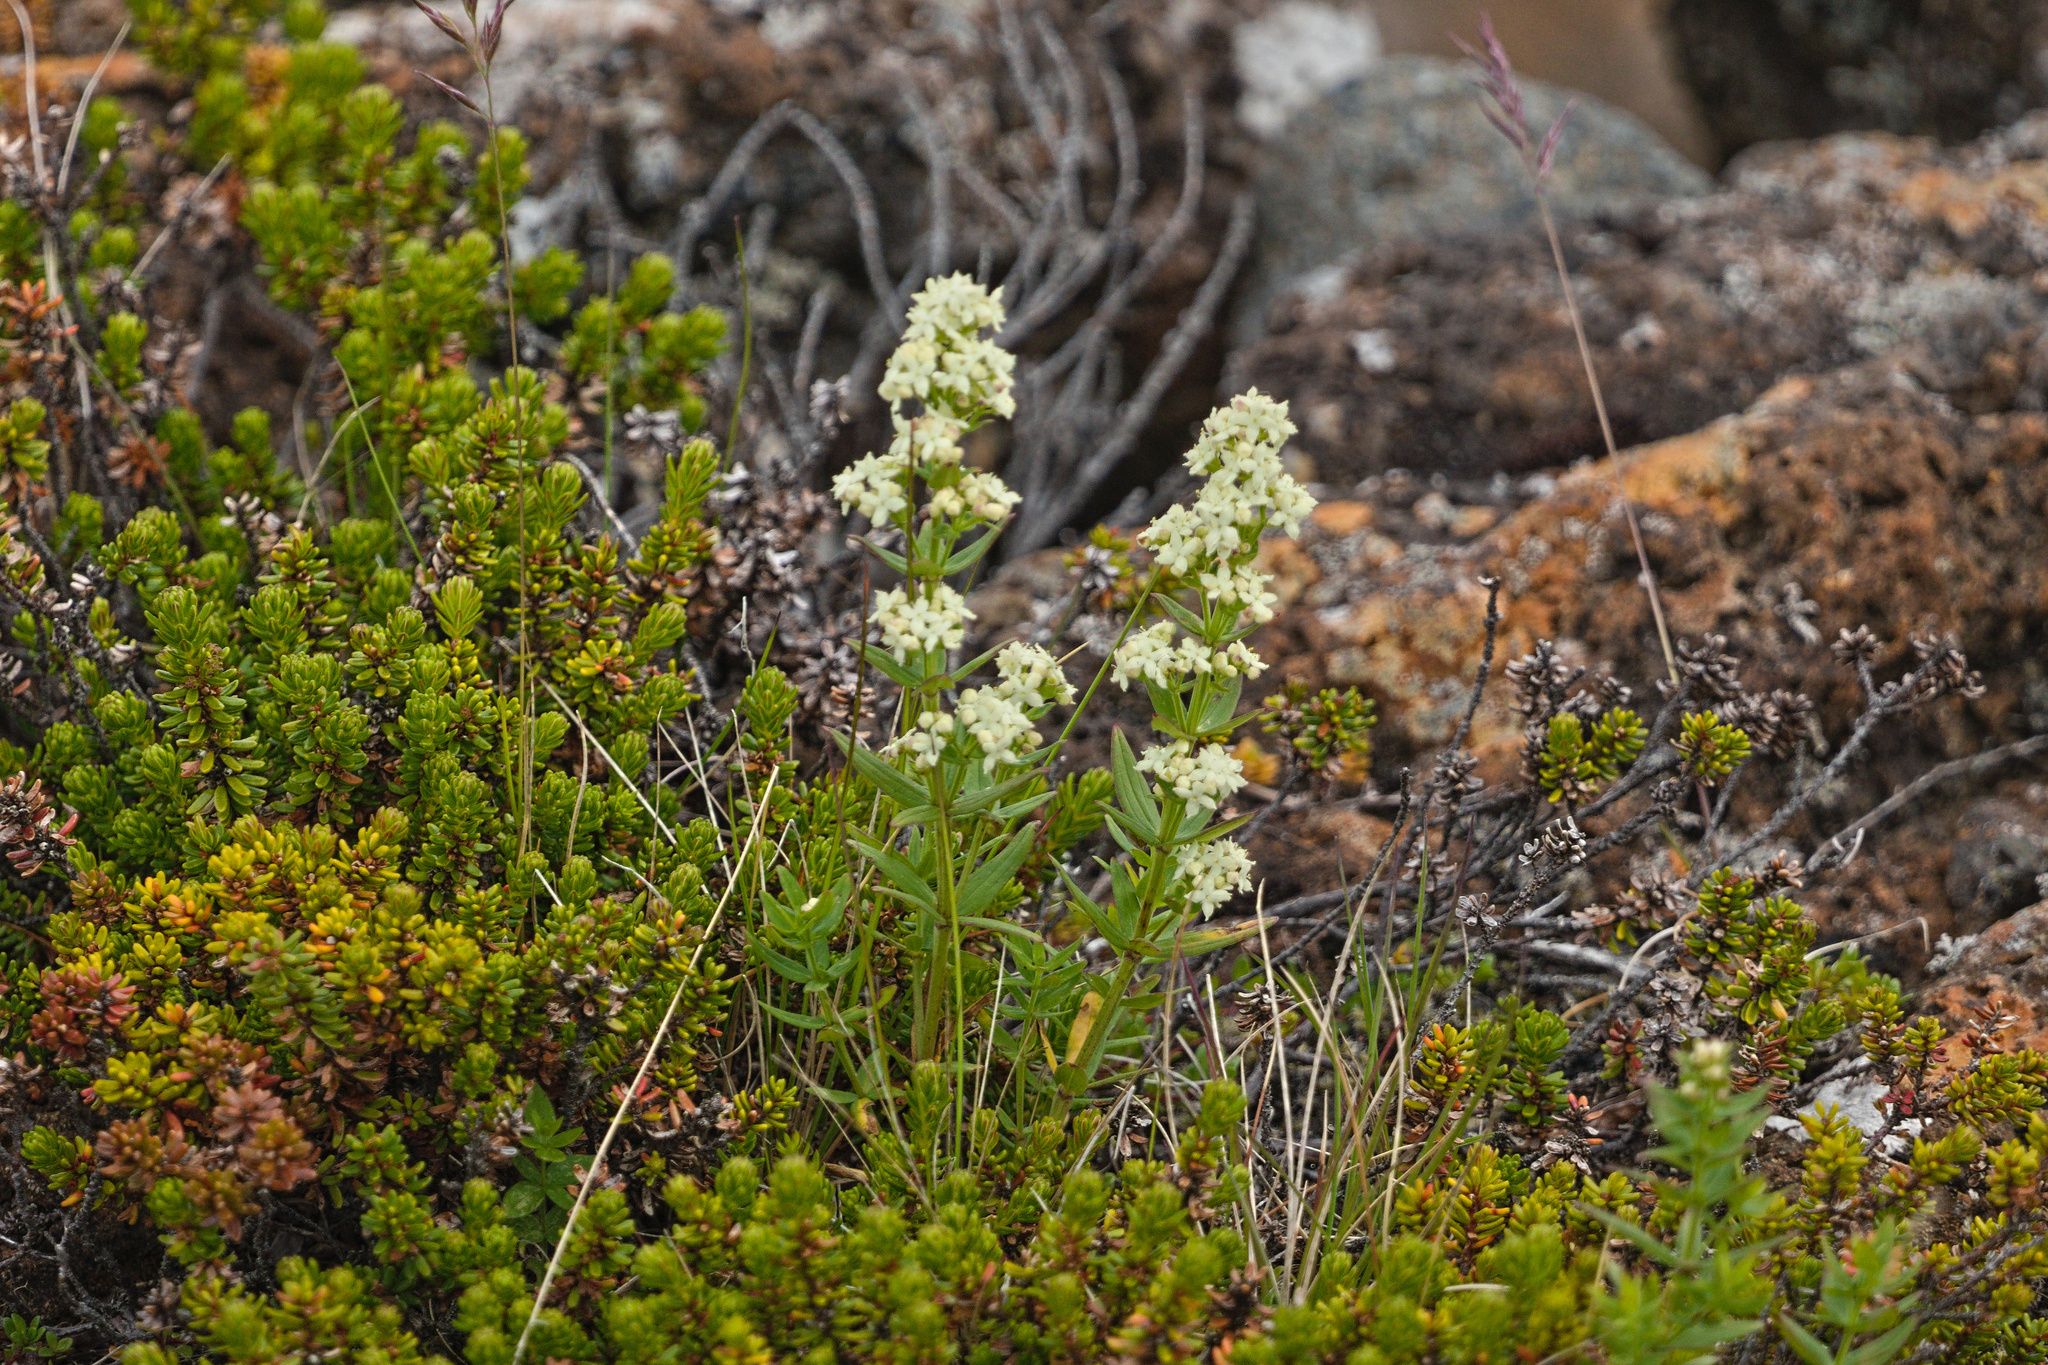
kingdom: Plantae
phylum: Tracheophyta
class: Magnoliopsida
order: Gentianales
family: Rubiaceae
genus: Galium
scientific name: Galium boreale
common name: Northern bedstraw
